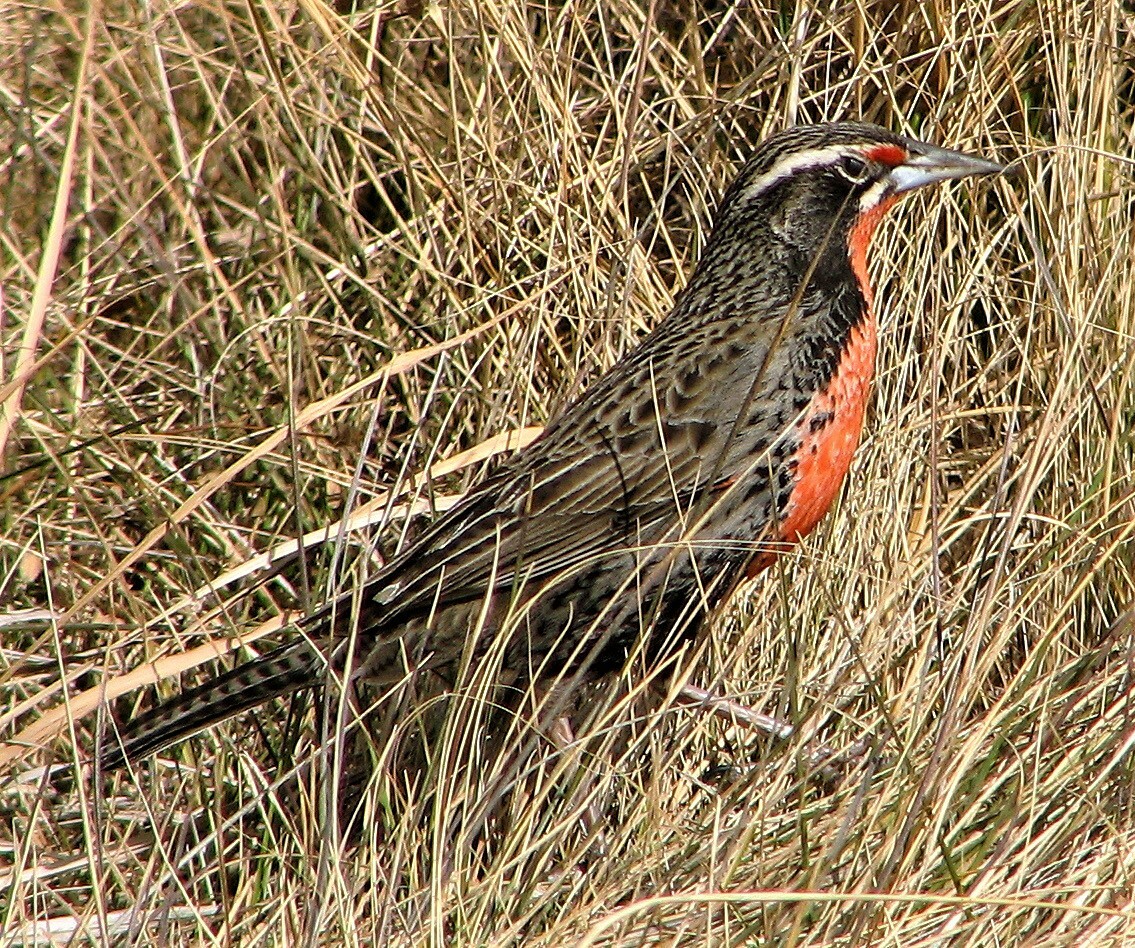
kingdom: Animalia
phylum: Chordata
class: Aves
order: Passeriformes
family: Icteridae
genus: Sturnella
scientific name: Sturnella loyca
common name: Long-tailed meadowlark
